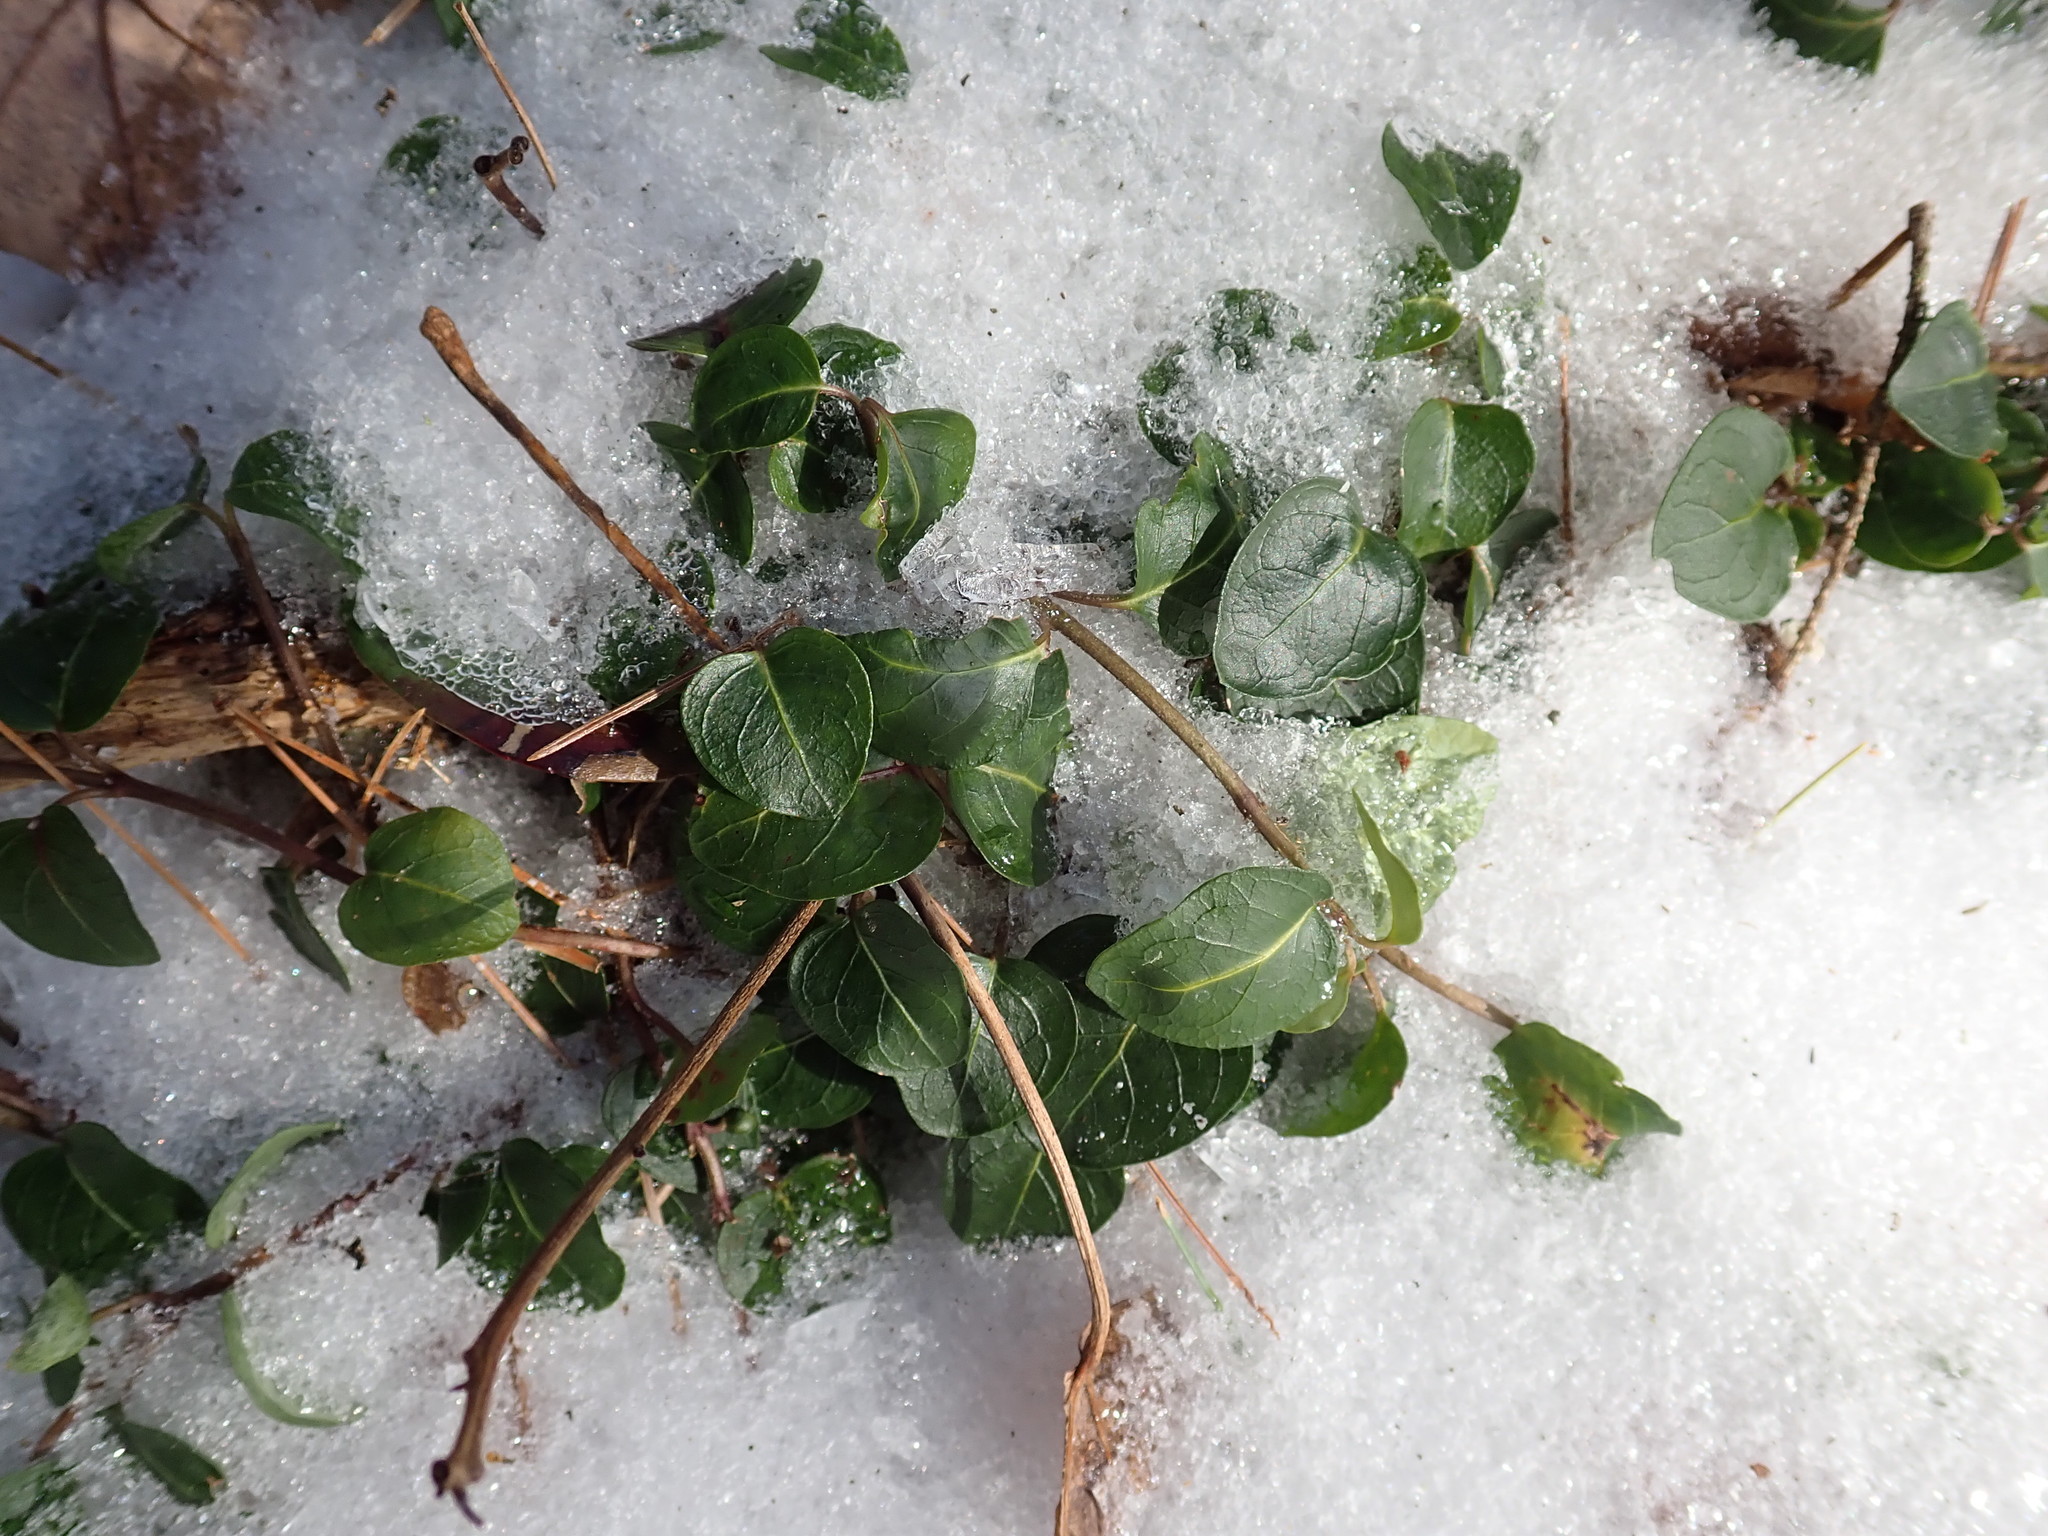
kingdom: Plantae
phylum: Tracheophyta
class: Magnoliopsida
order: Gentianales
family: Rubiaceae
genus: Mitchella
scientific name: Mitchella repens
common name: Partridge-berry
